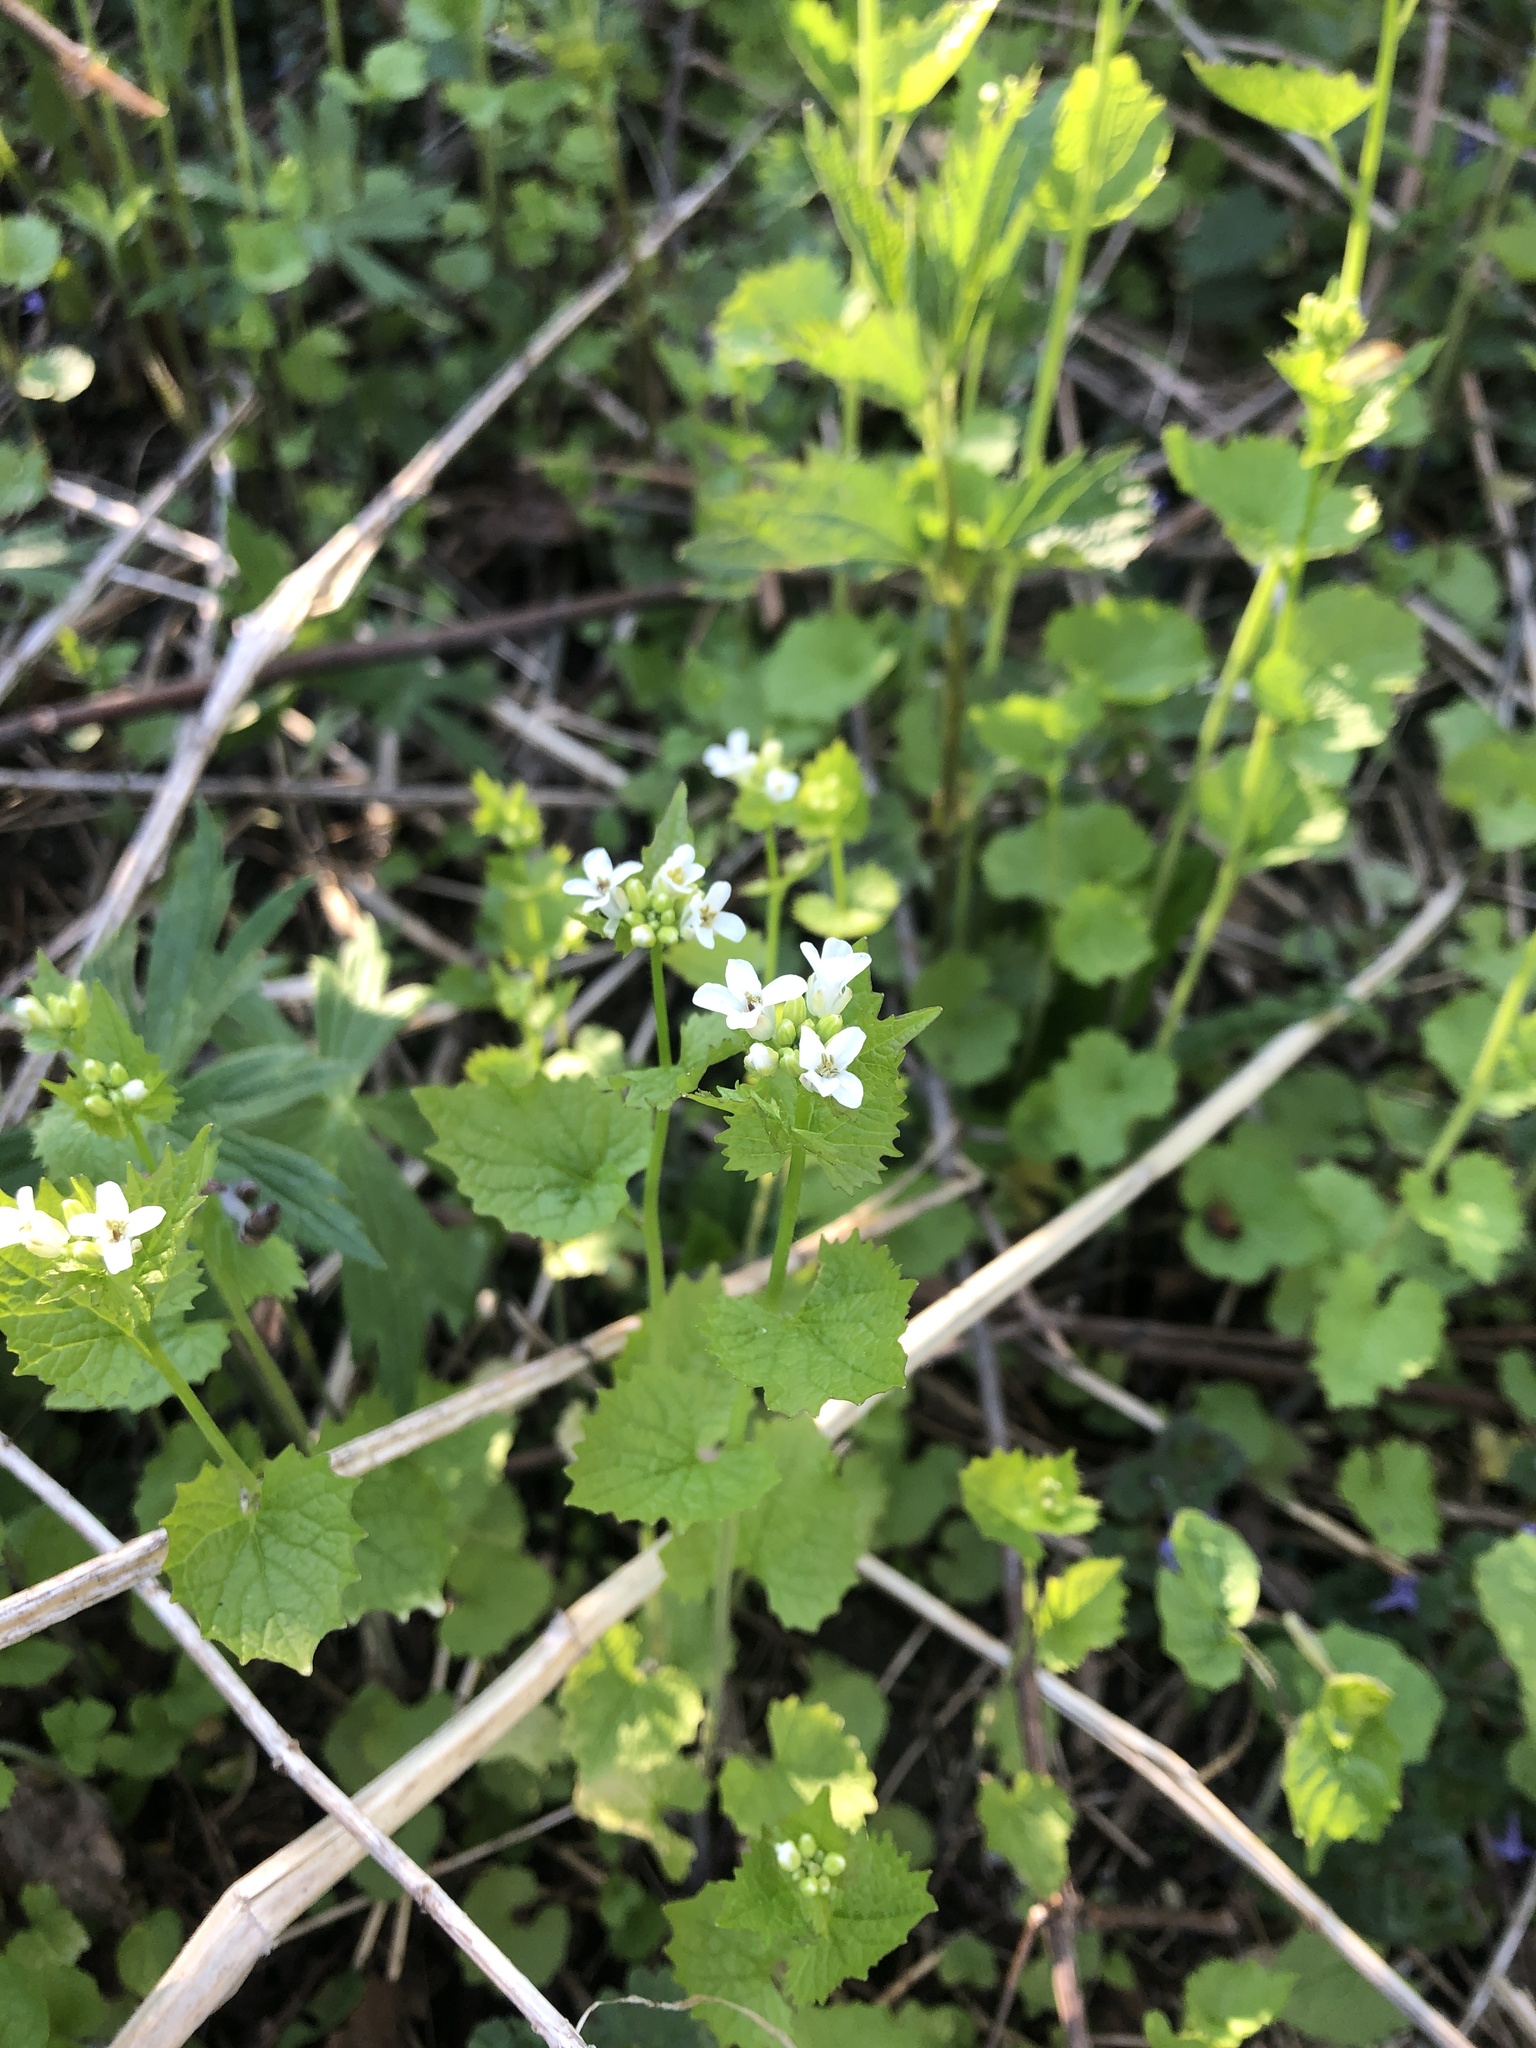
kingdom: Plantae
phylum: Tracheophyta
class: Magnoliopsida
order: Brassicales
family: Brassicaceae
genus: Alliaria
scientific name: Alliaria petiolata
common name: Garlic mustard
